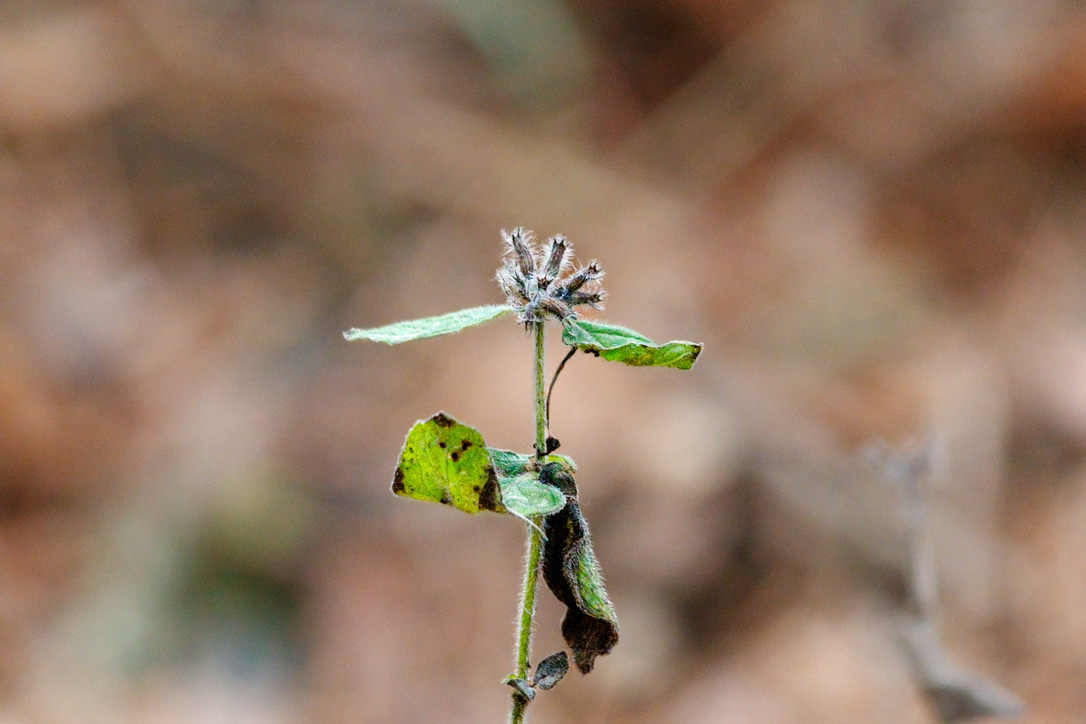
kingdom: Plantae
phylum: Tracheophyta
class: Magnoliopsida
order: Lamiales
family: Lamiaceae
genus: Clinopodium
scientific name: Clinopodium vulgare
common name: Wild basil
